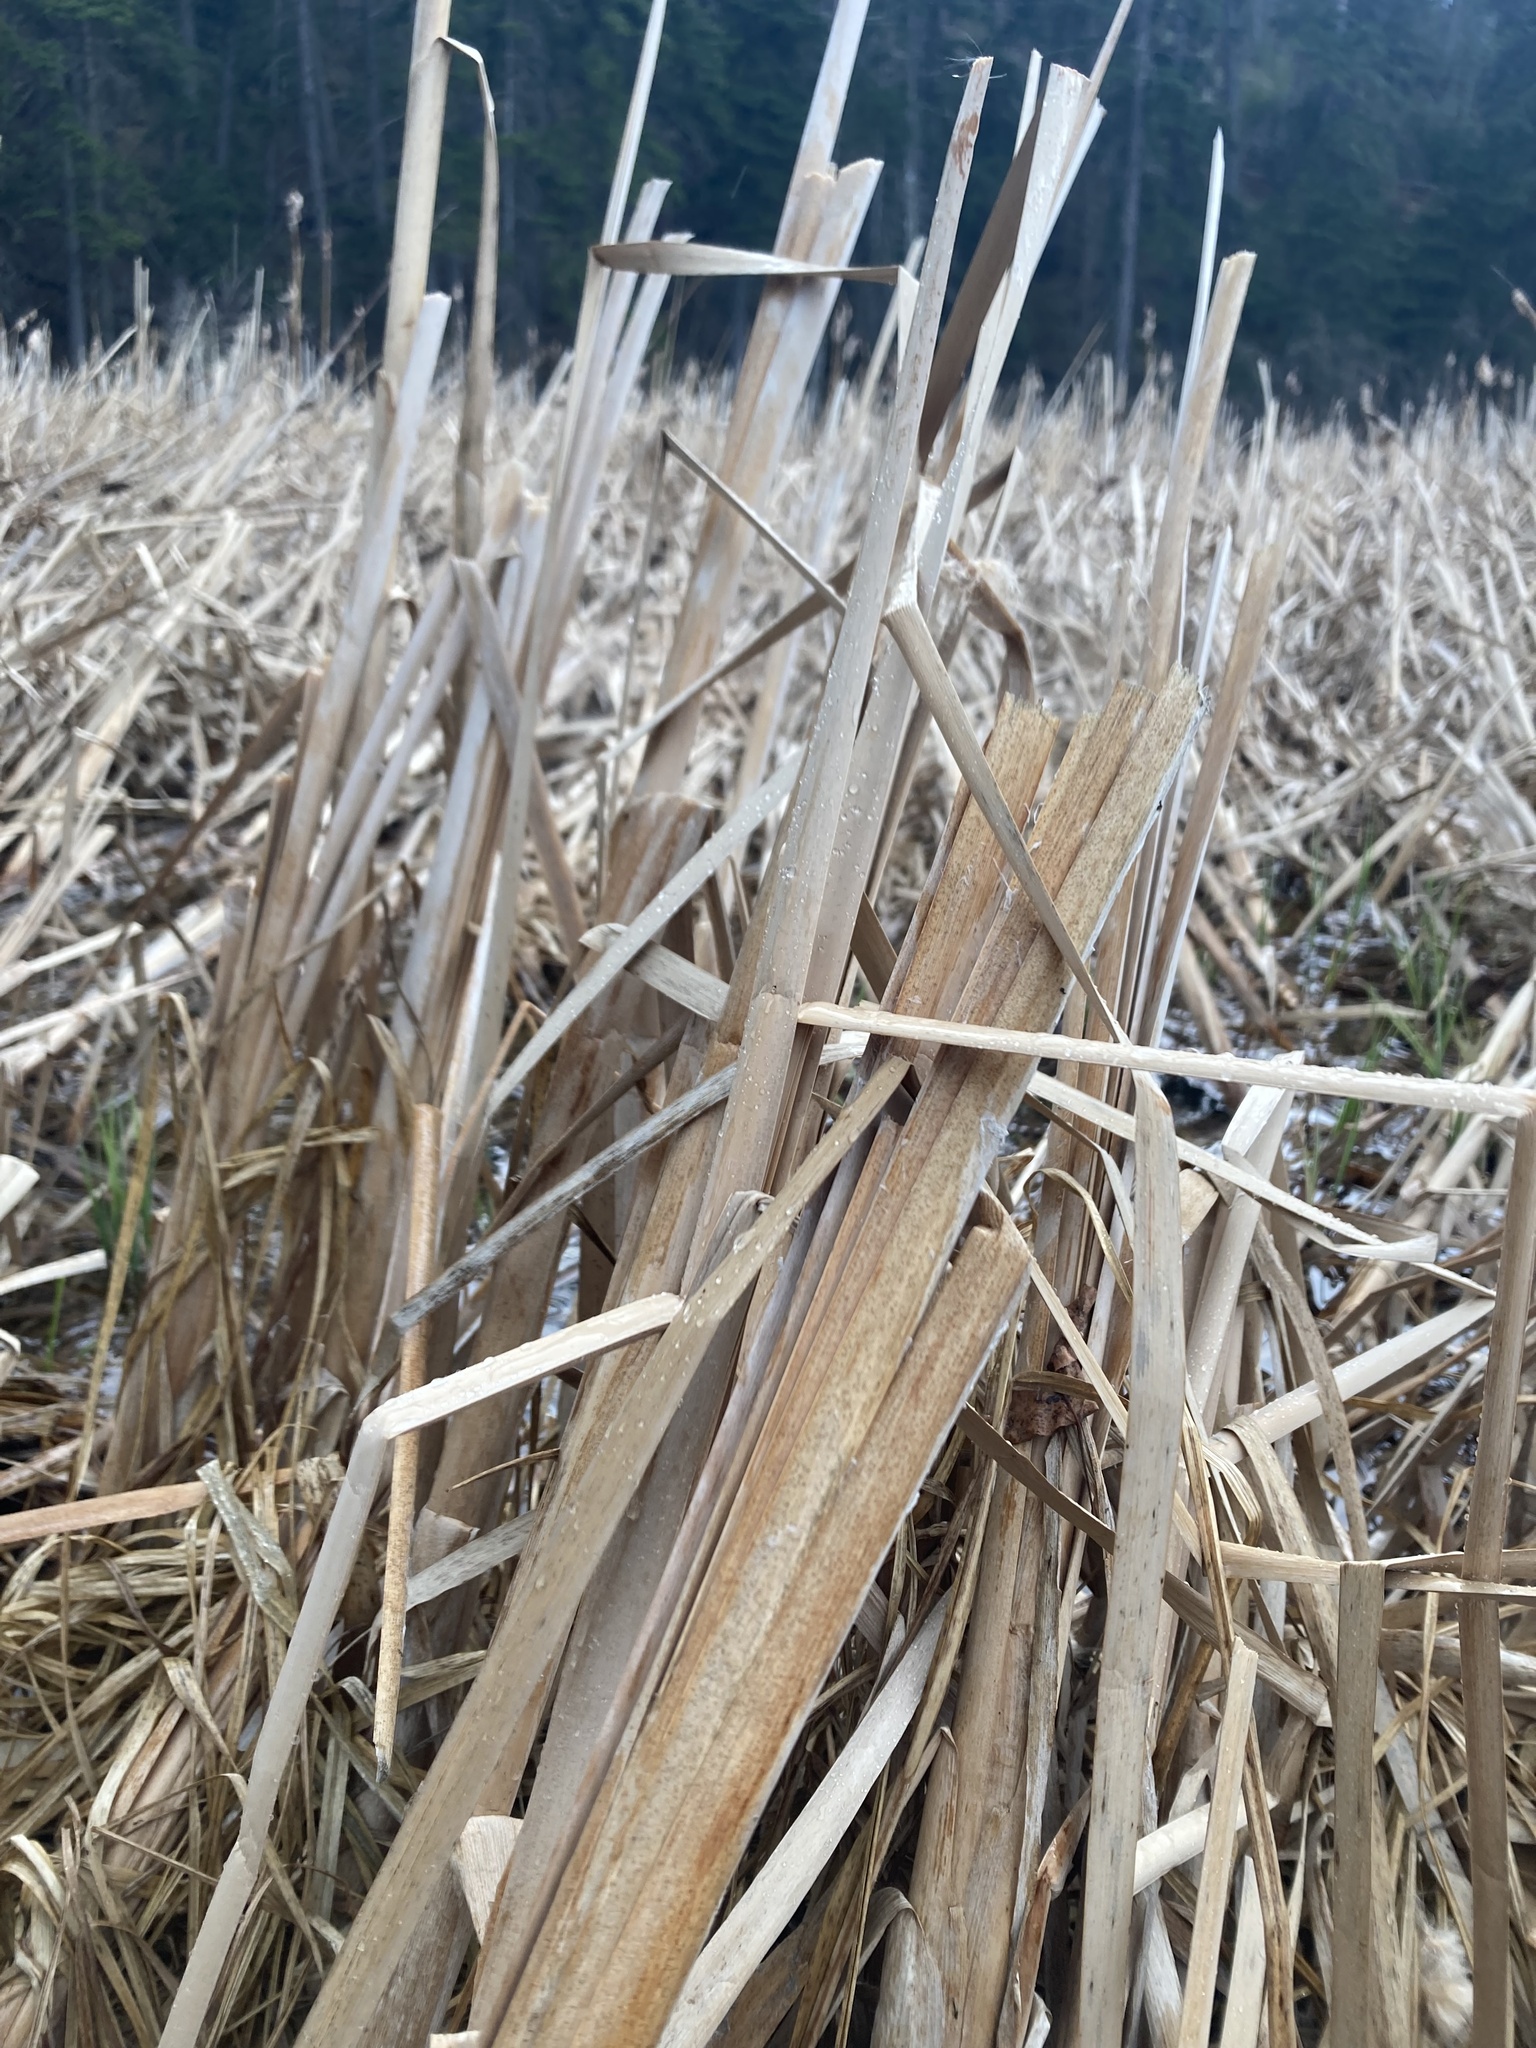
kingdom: Plantae
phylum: Tracheophyta
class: Liliopsida
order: Poales
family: Typhaceae
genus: Typha
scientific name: Typha latifolia
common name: Broadleaf cattail
